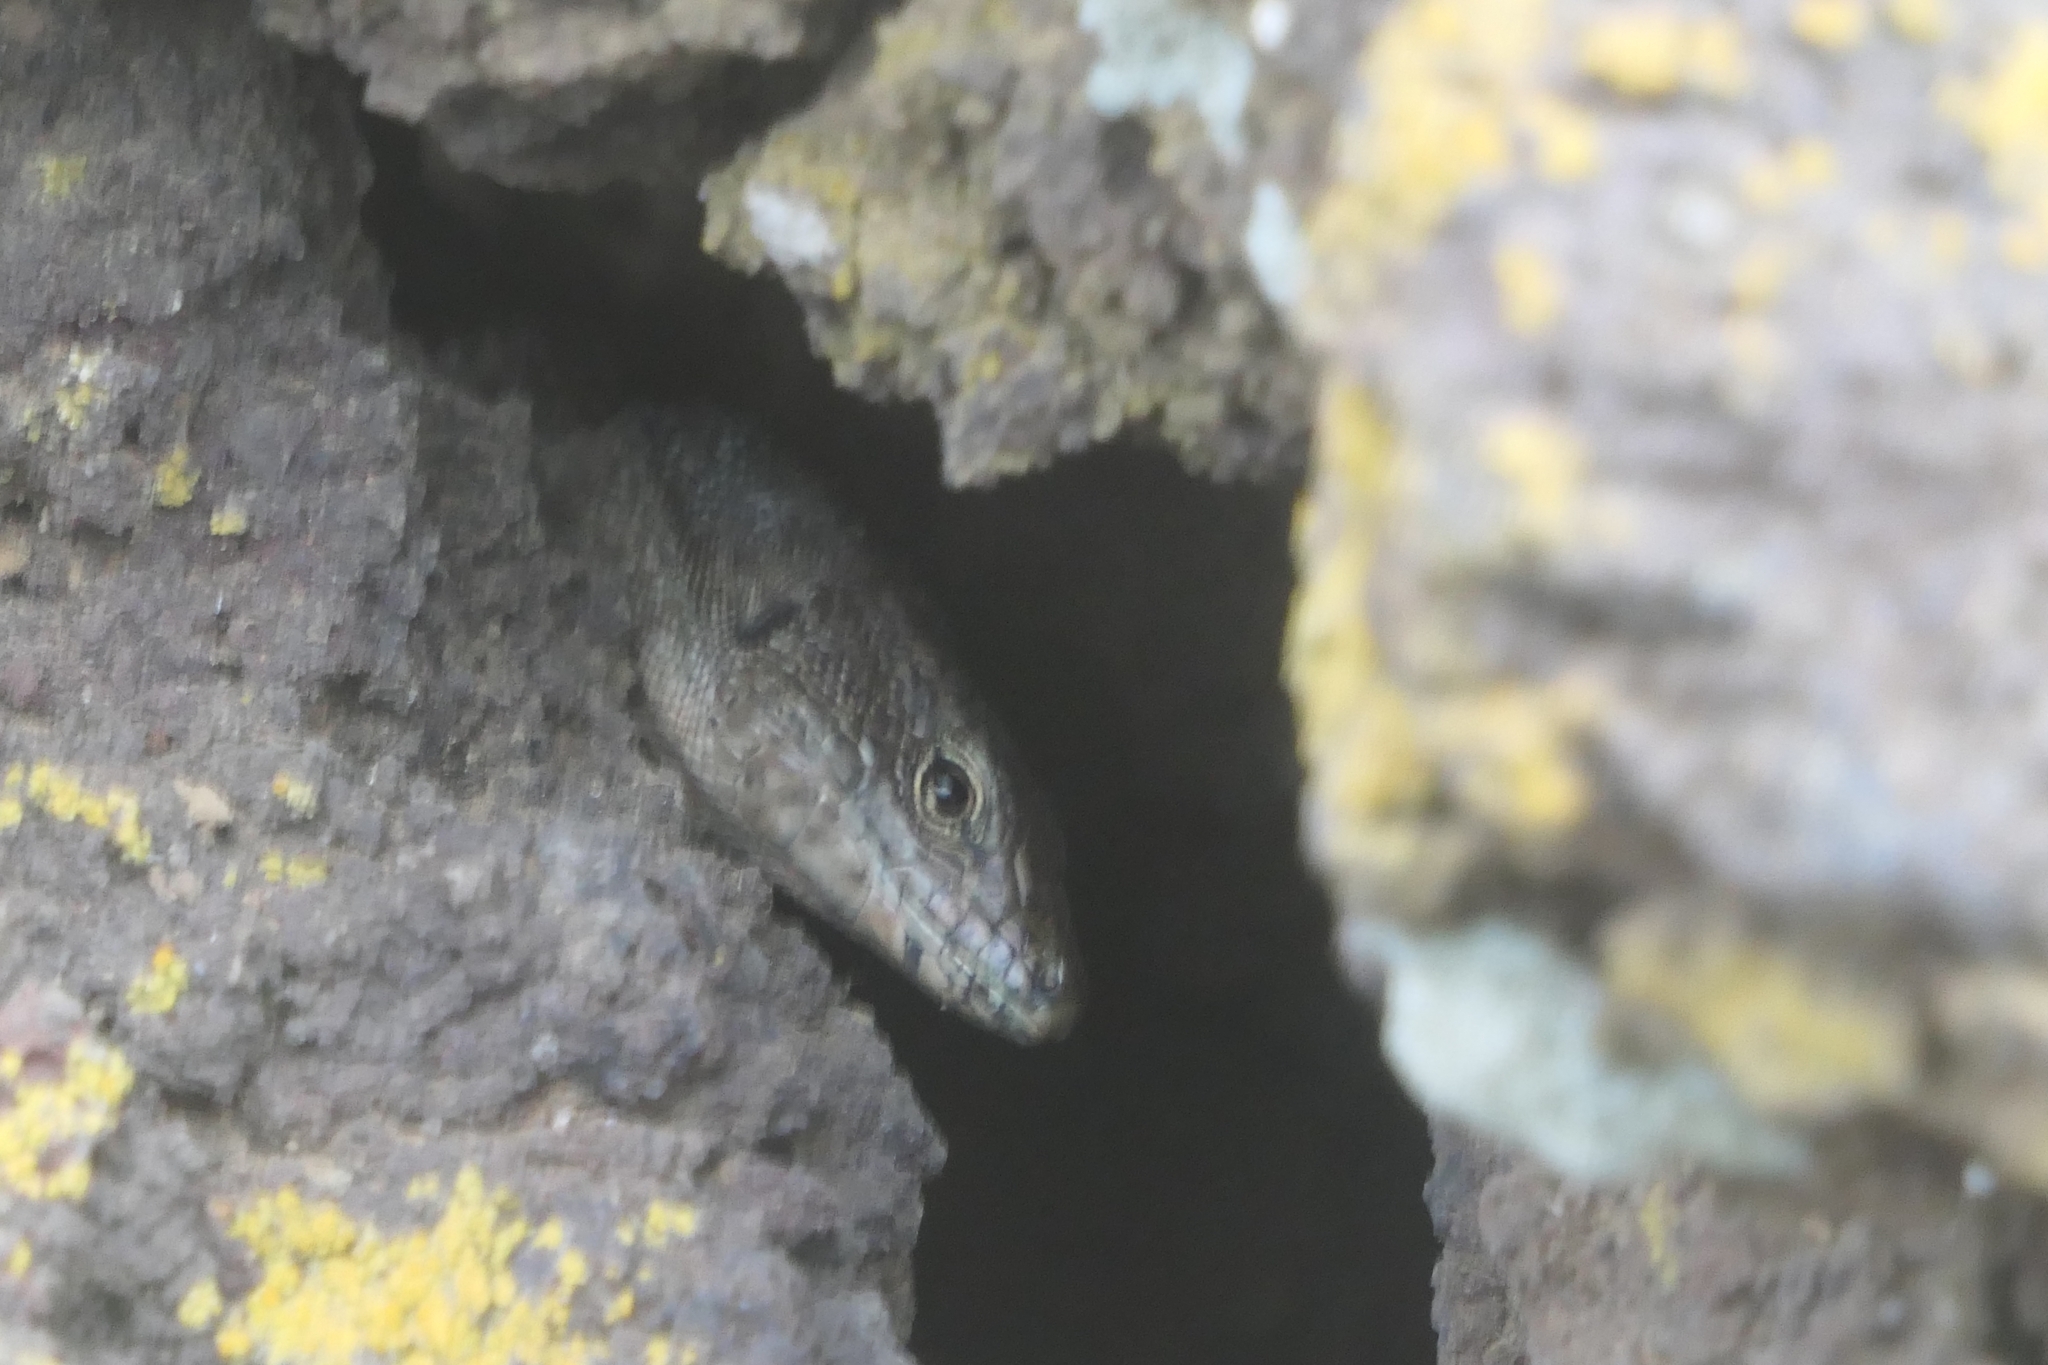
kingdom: Animalia
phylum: Chordata
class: Squamata
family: Lacertidae
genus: Teira
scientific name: Teira dugesii
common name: Madeira lizard
